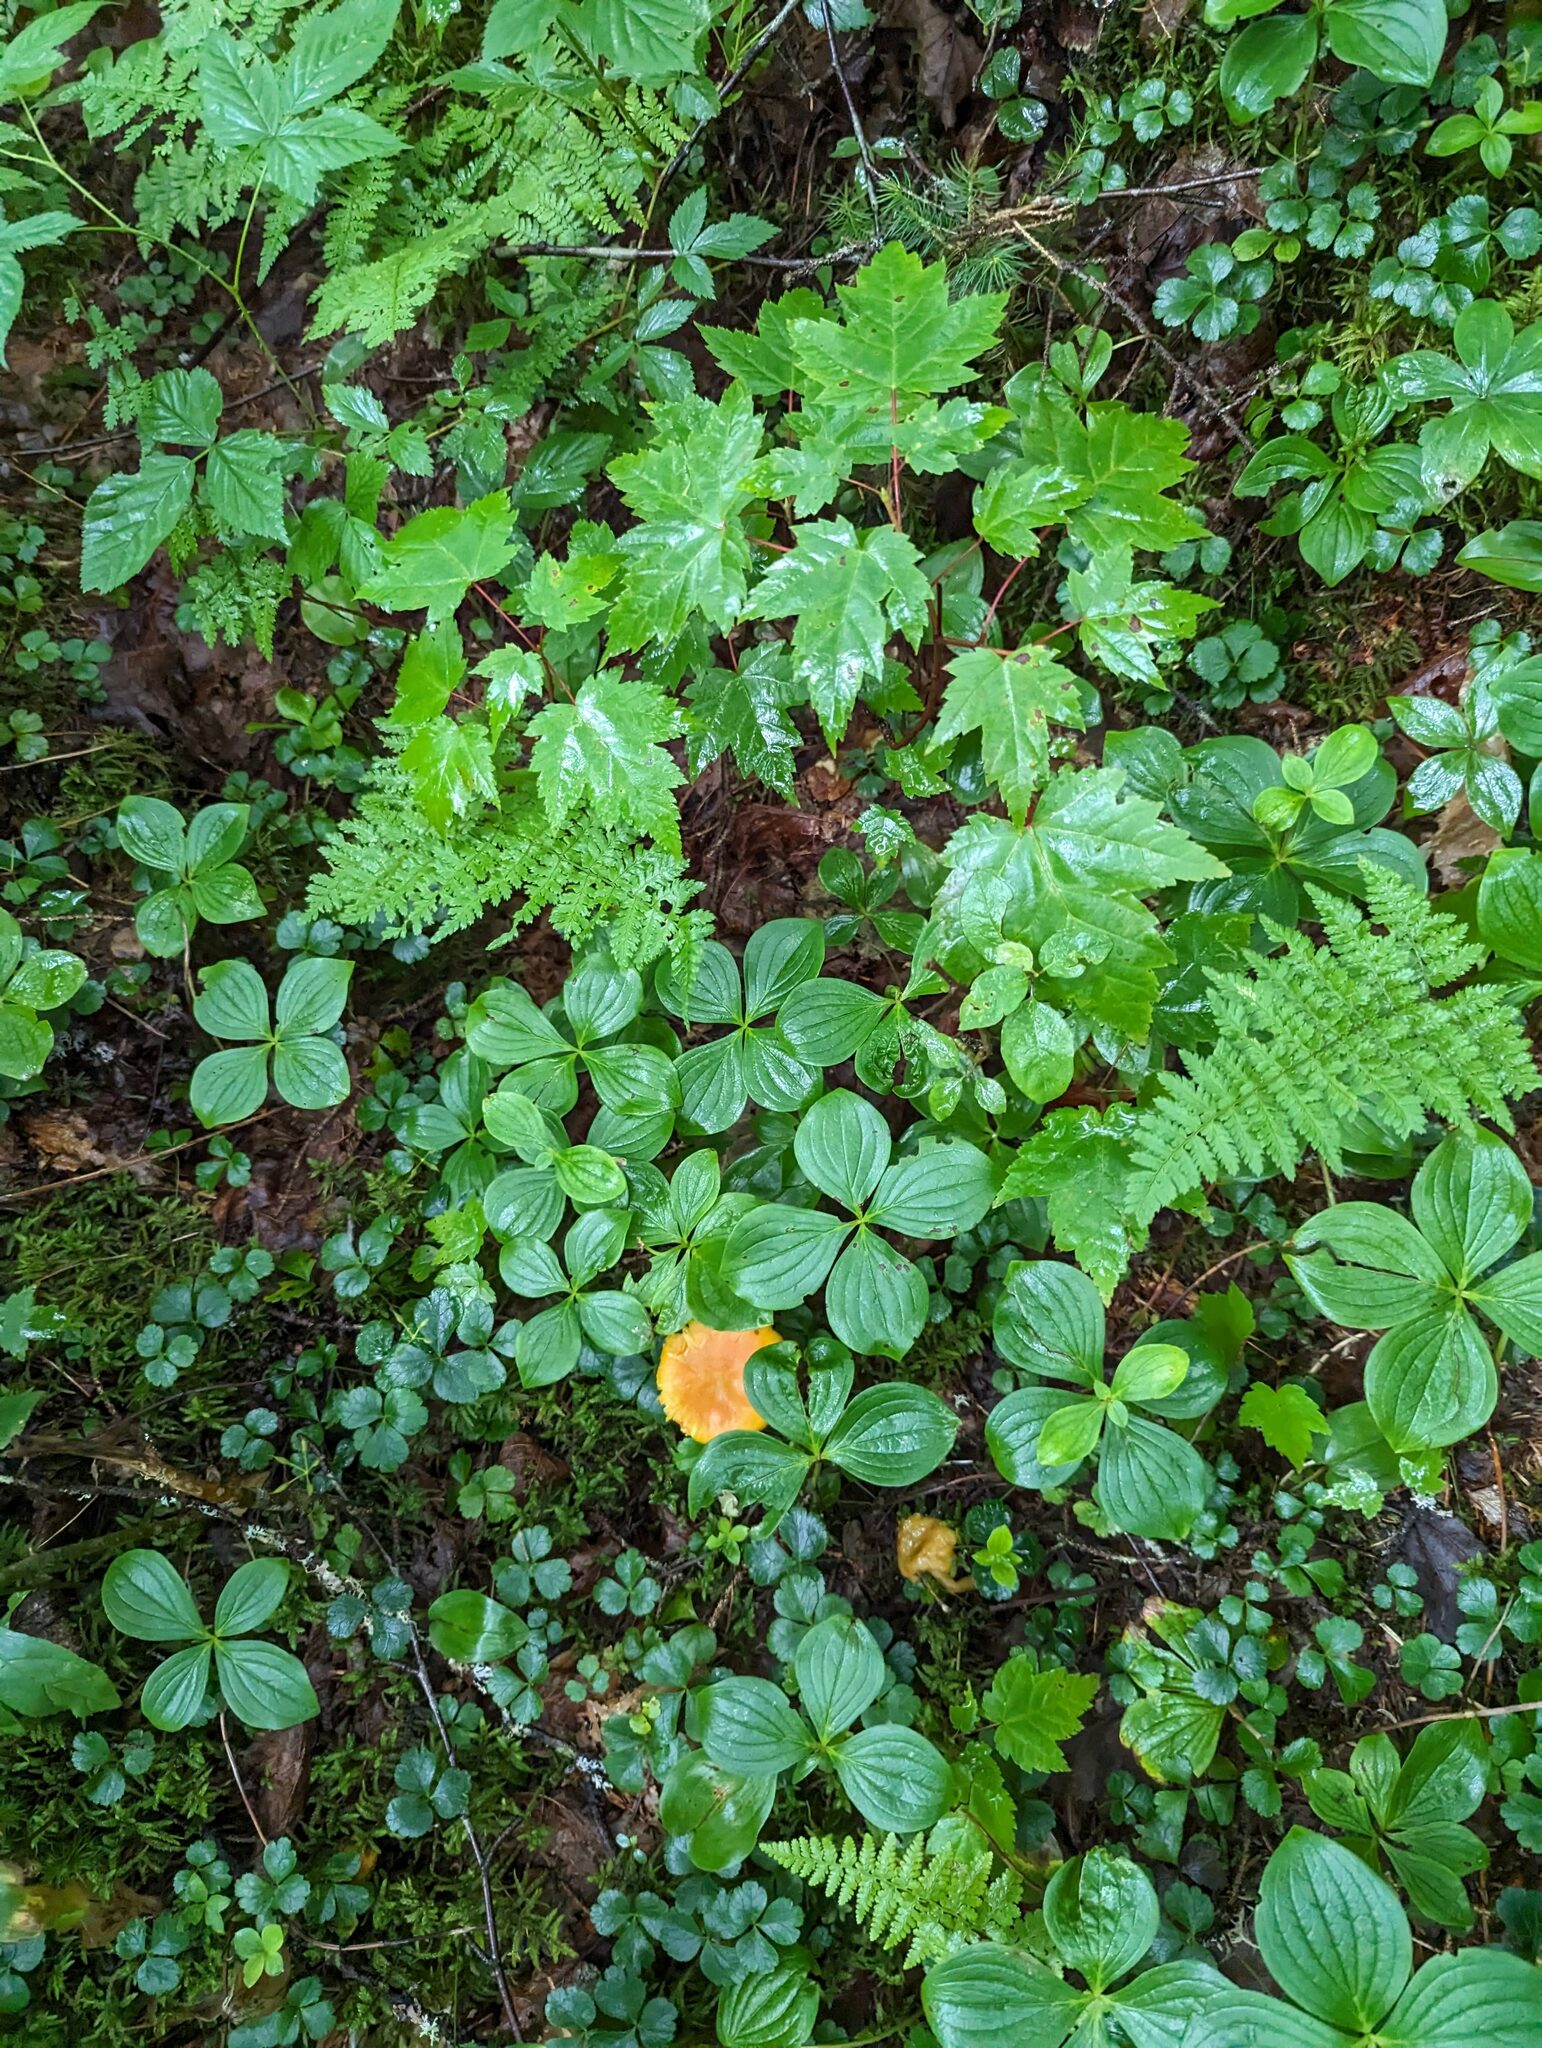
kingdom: Plantae
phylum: Tracheophyta
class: Magnoliopsida
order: Sapindales
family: Sapindaceae
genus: Acer
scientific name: Acer rubrum
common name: Red maple
